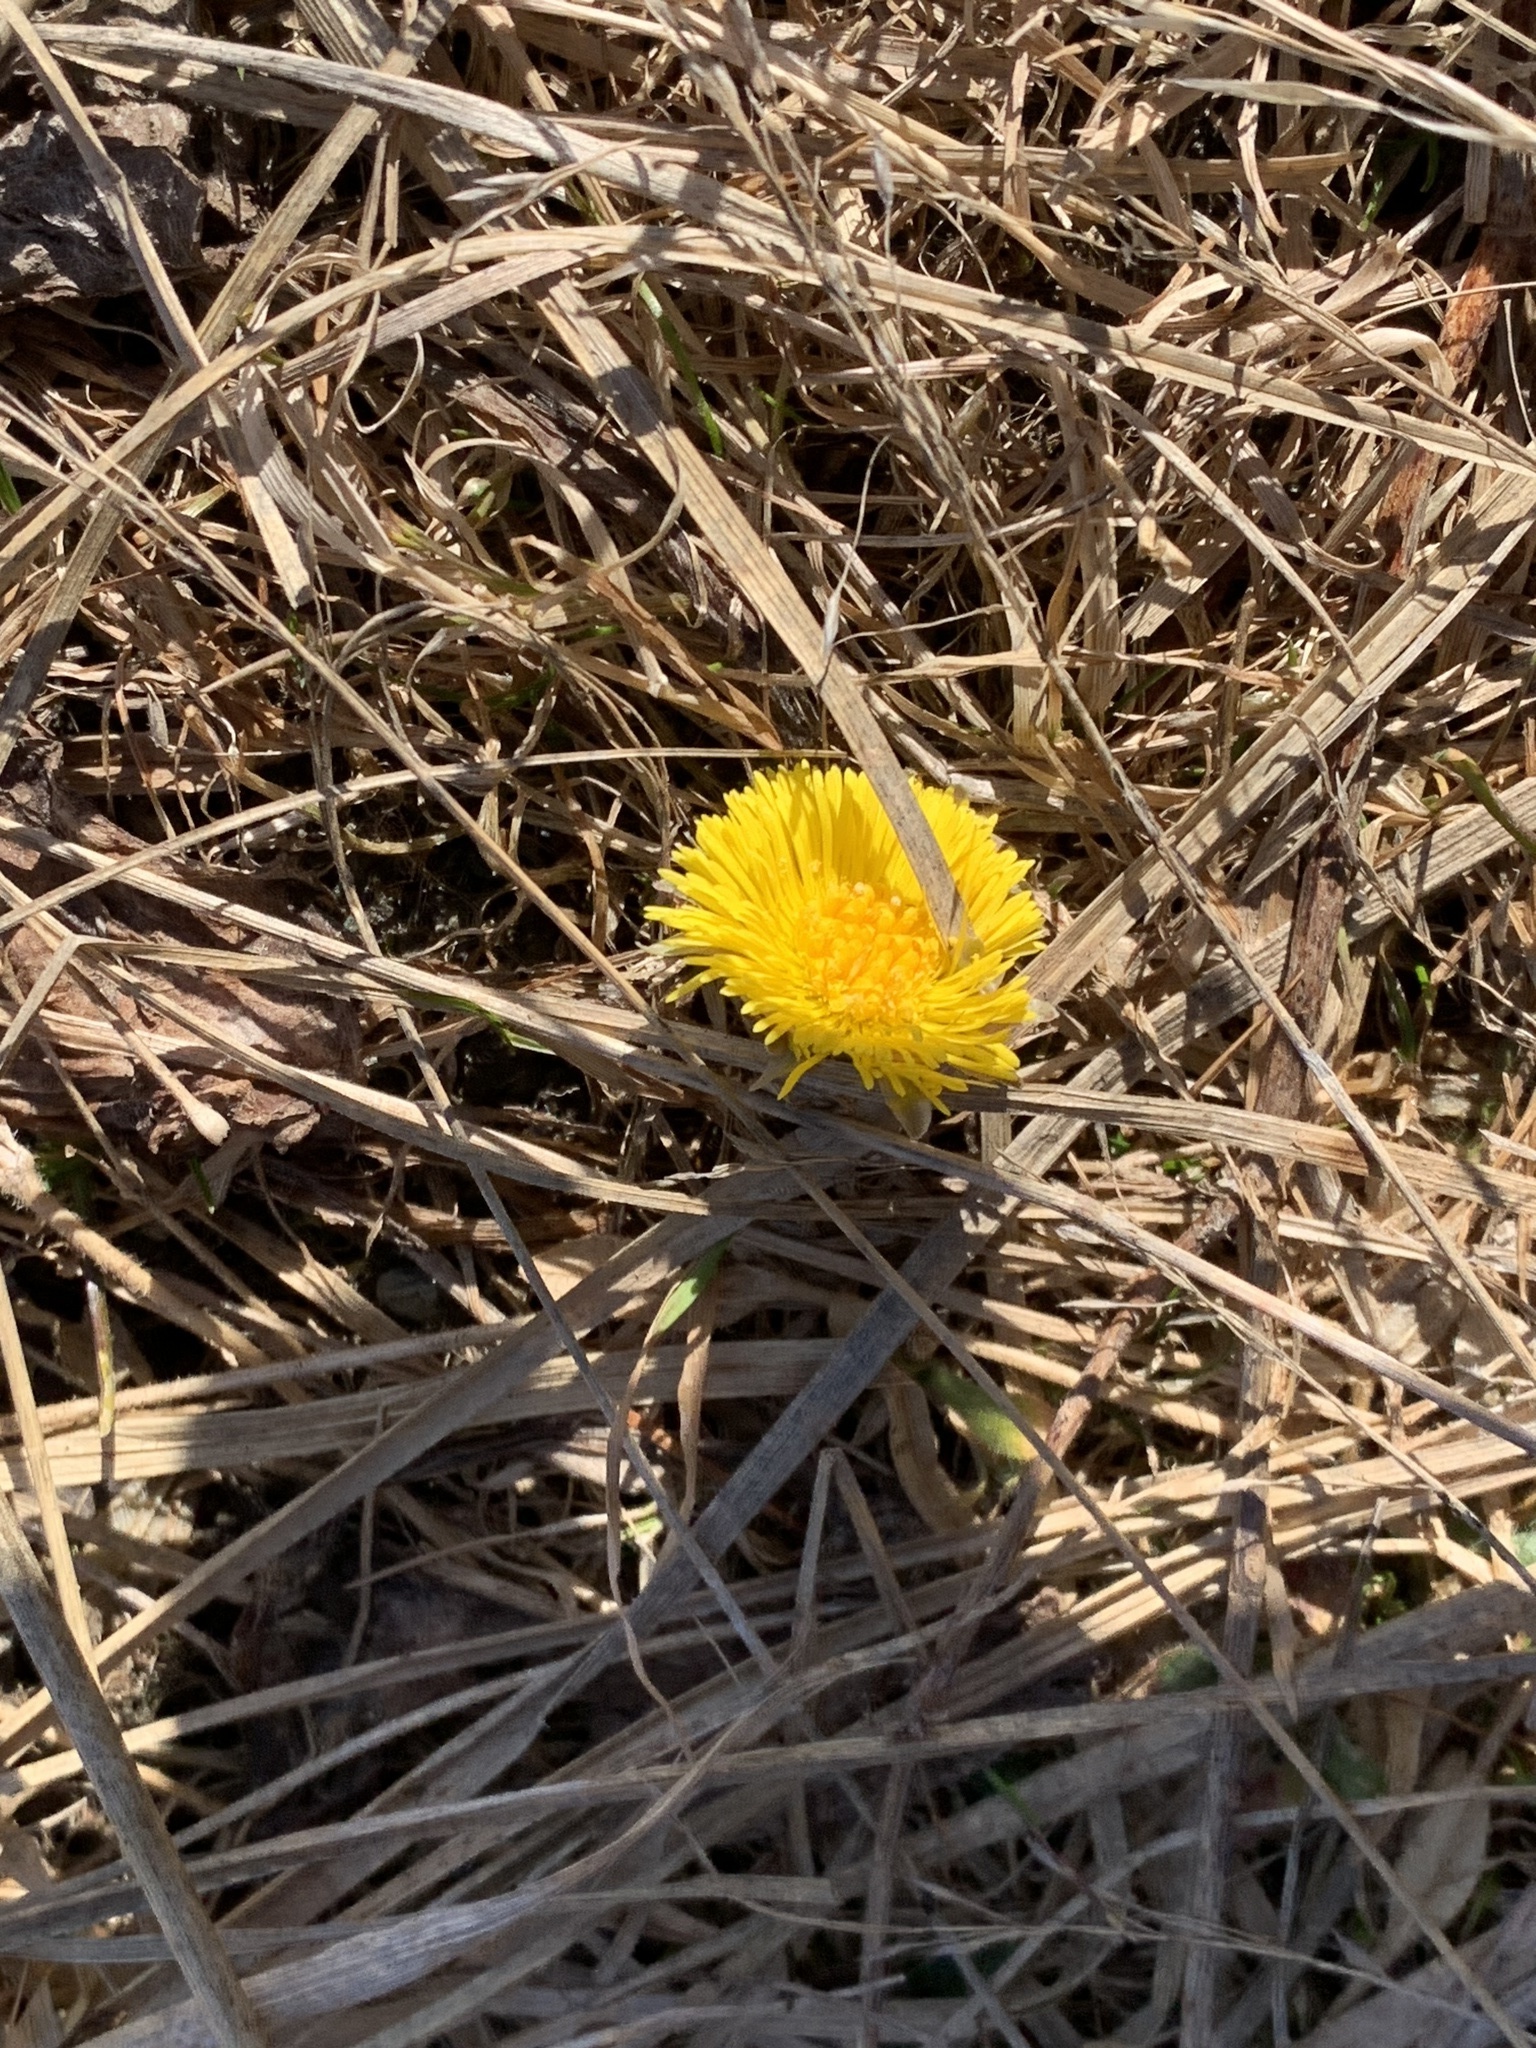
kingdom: Plantae
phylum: Tracheophyta
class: Magnoliopsida
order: Asterales
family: Asteraceae
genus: Tussilago
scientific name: Tussilago farfara
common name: Coltsfoot
